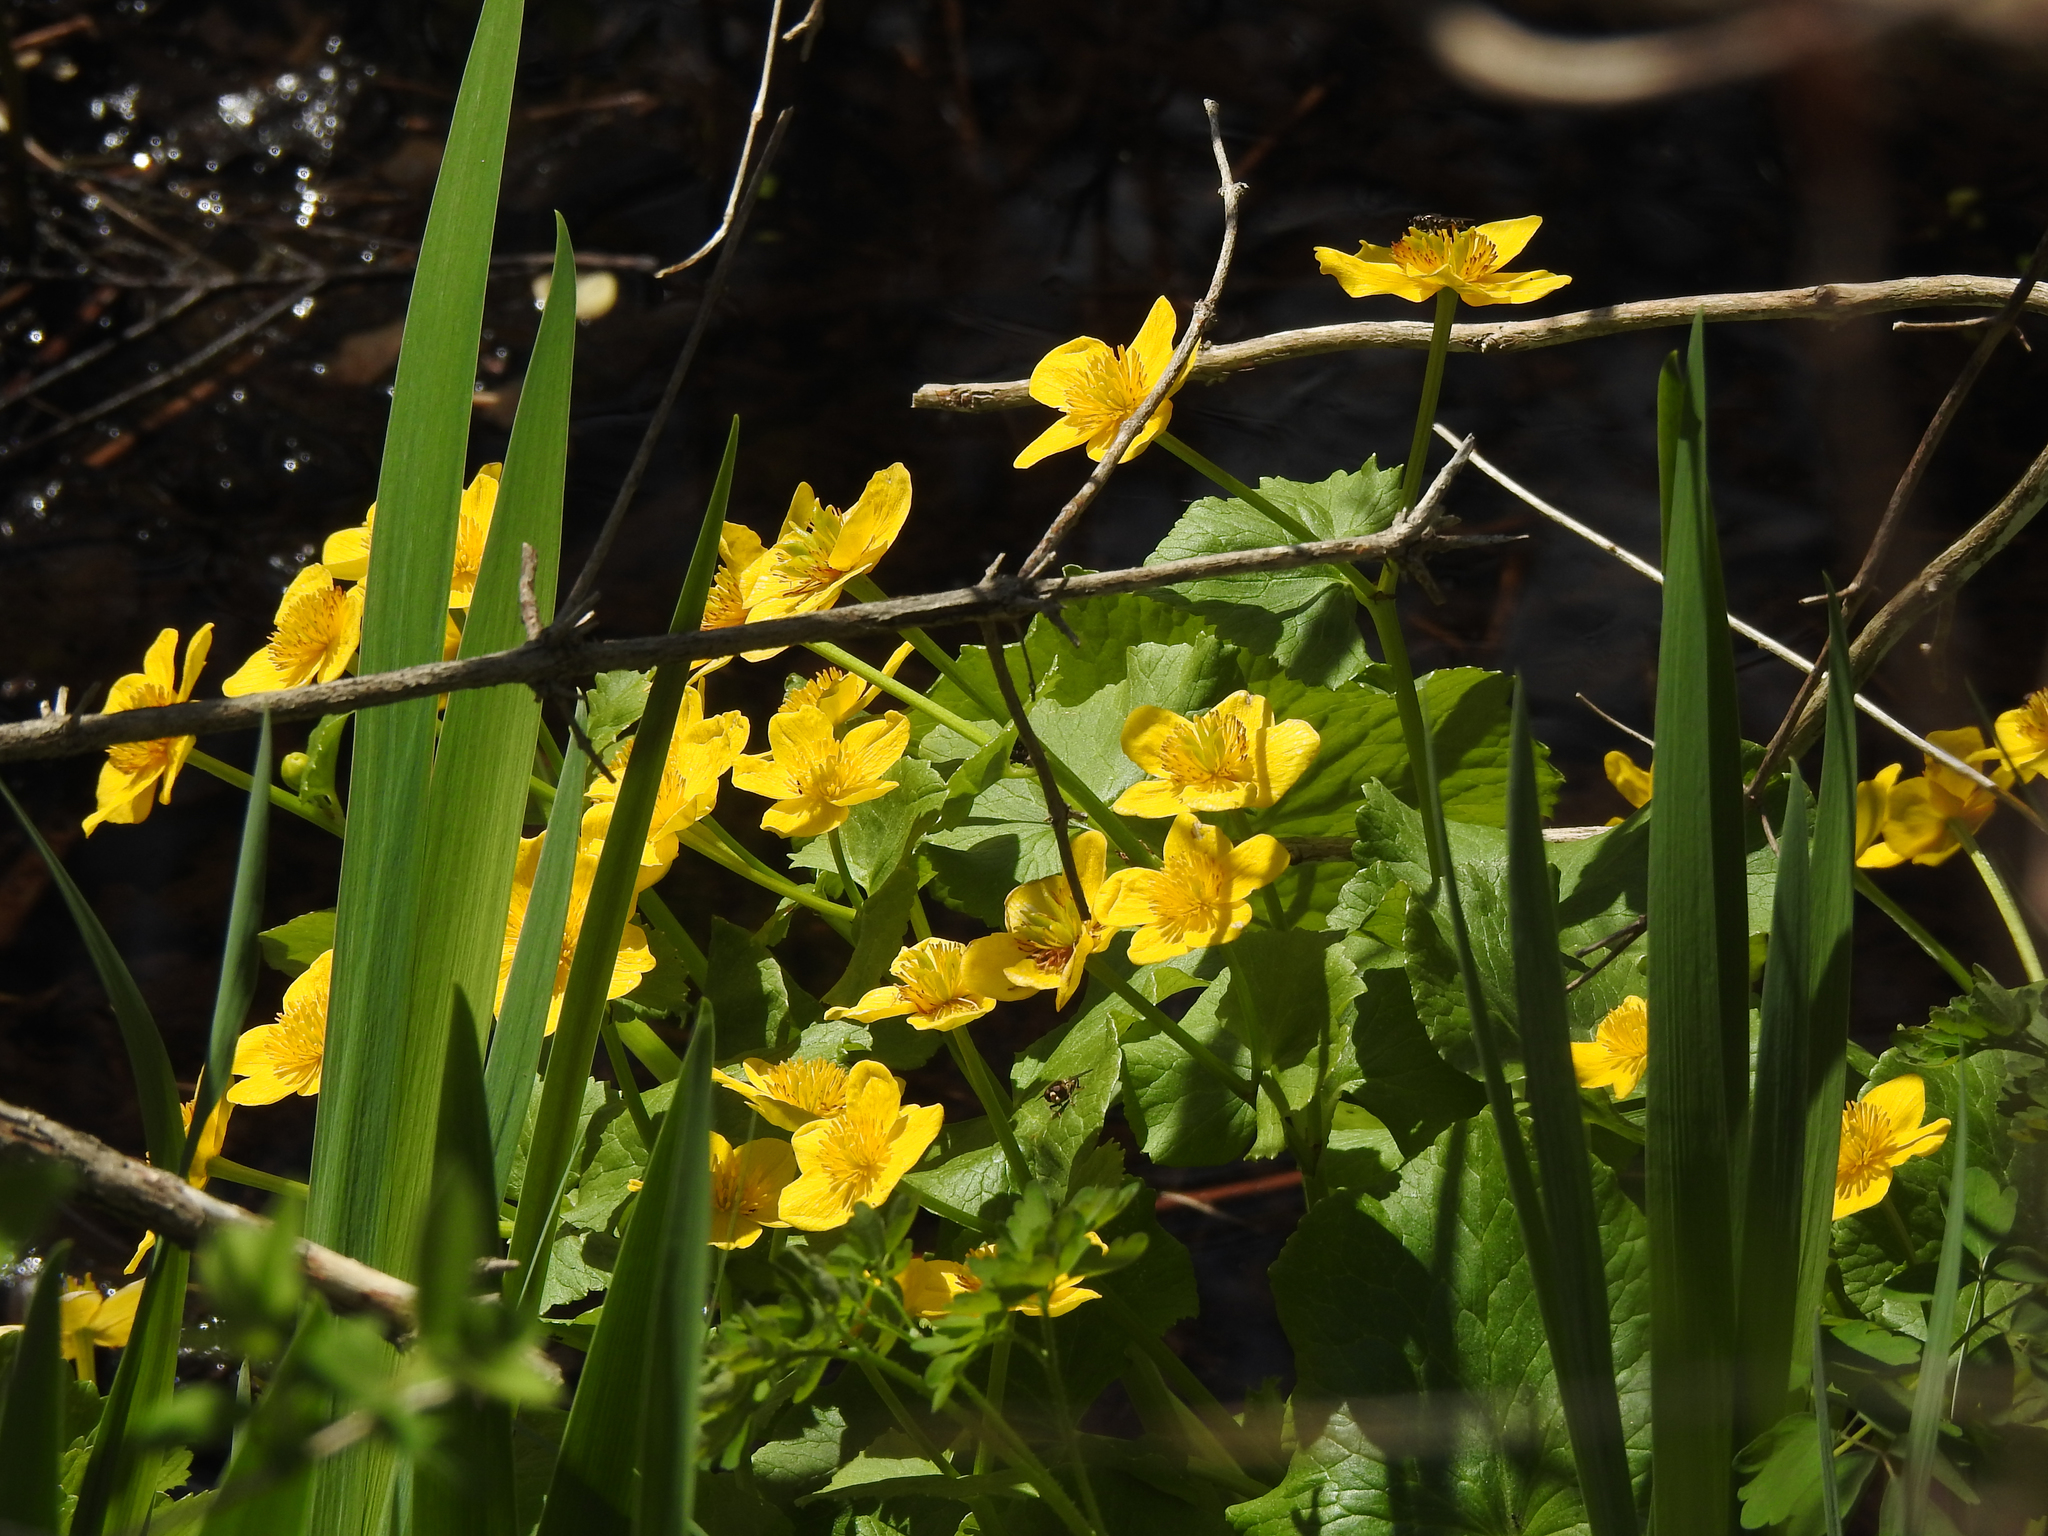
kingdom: Plantae
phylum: Tracheophyta
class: Magnoliopsida
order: Ranunculales
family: Ranunculaceae
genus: Caltha
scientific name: Caltha palustris
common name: Marsh marigold
